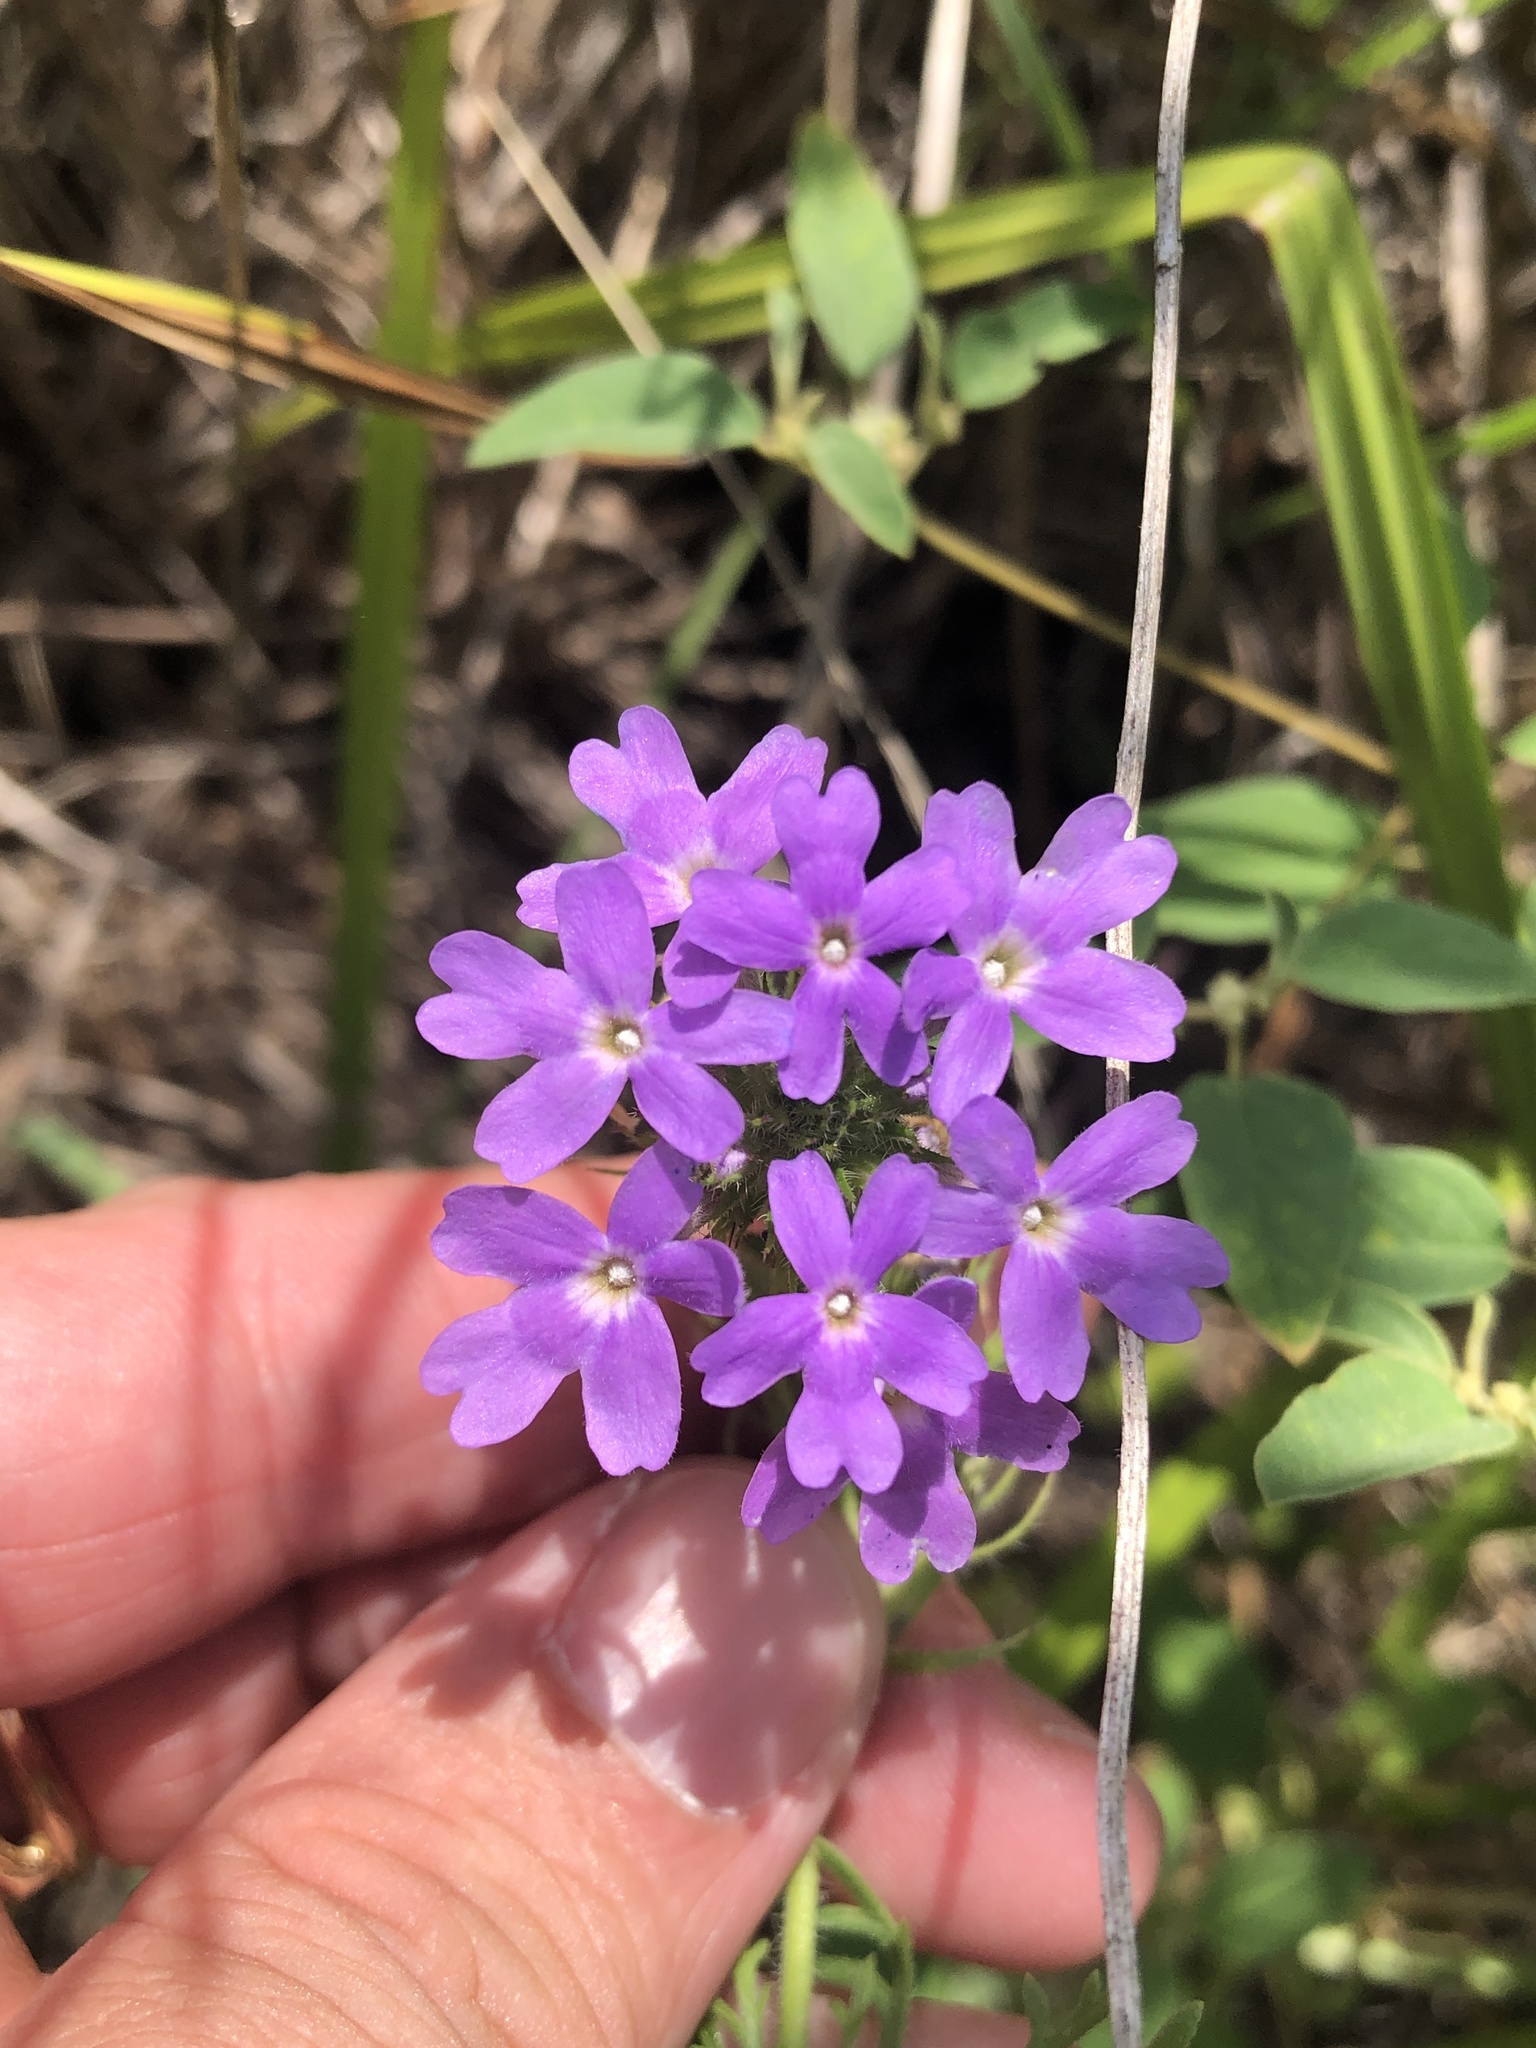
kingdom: Plantae
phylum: Tracheophyta
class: Magnoliopsida
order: Lamiales
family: Verbenaceae
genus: Verbena
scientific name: Verbena bipinnatifida
